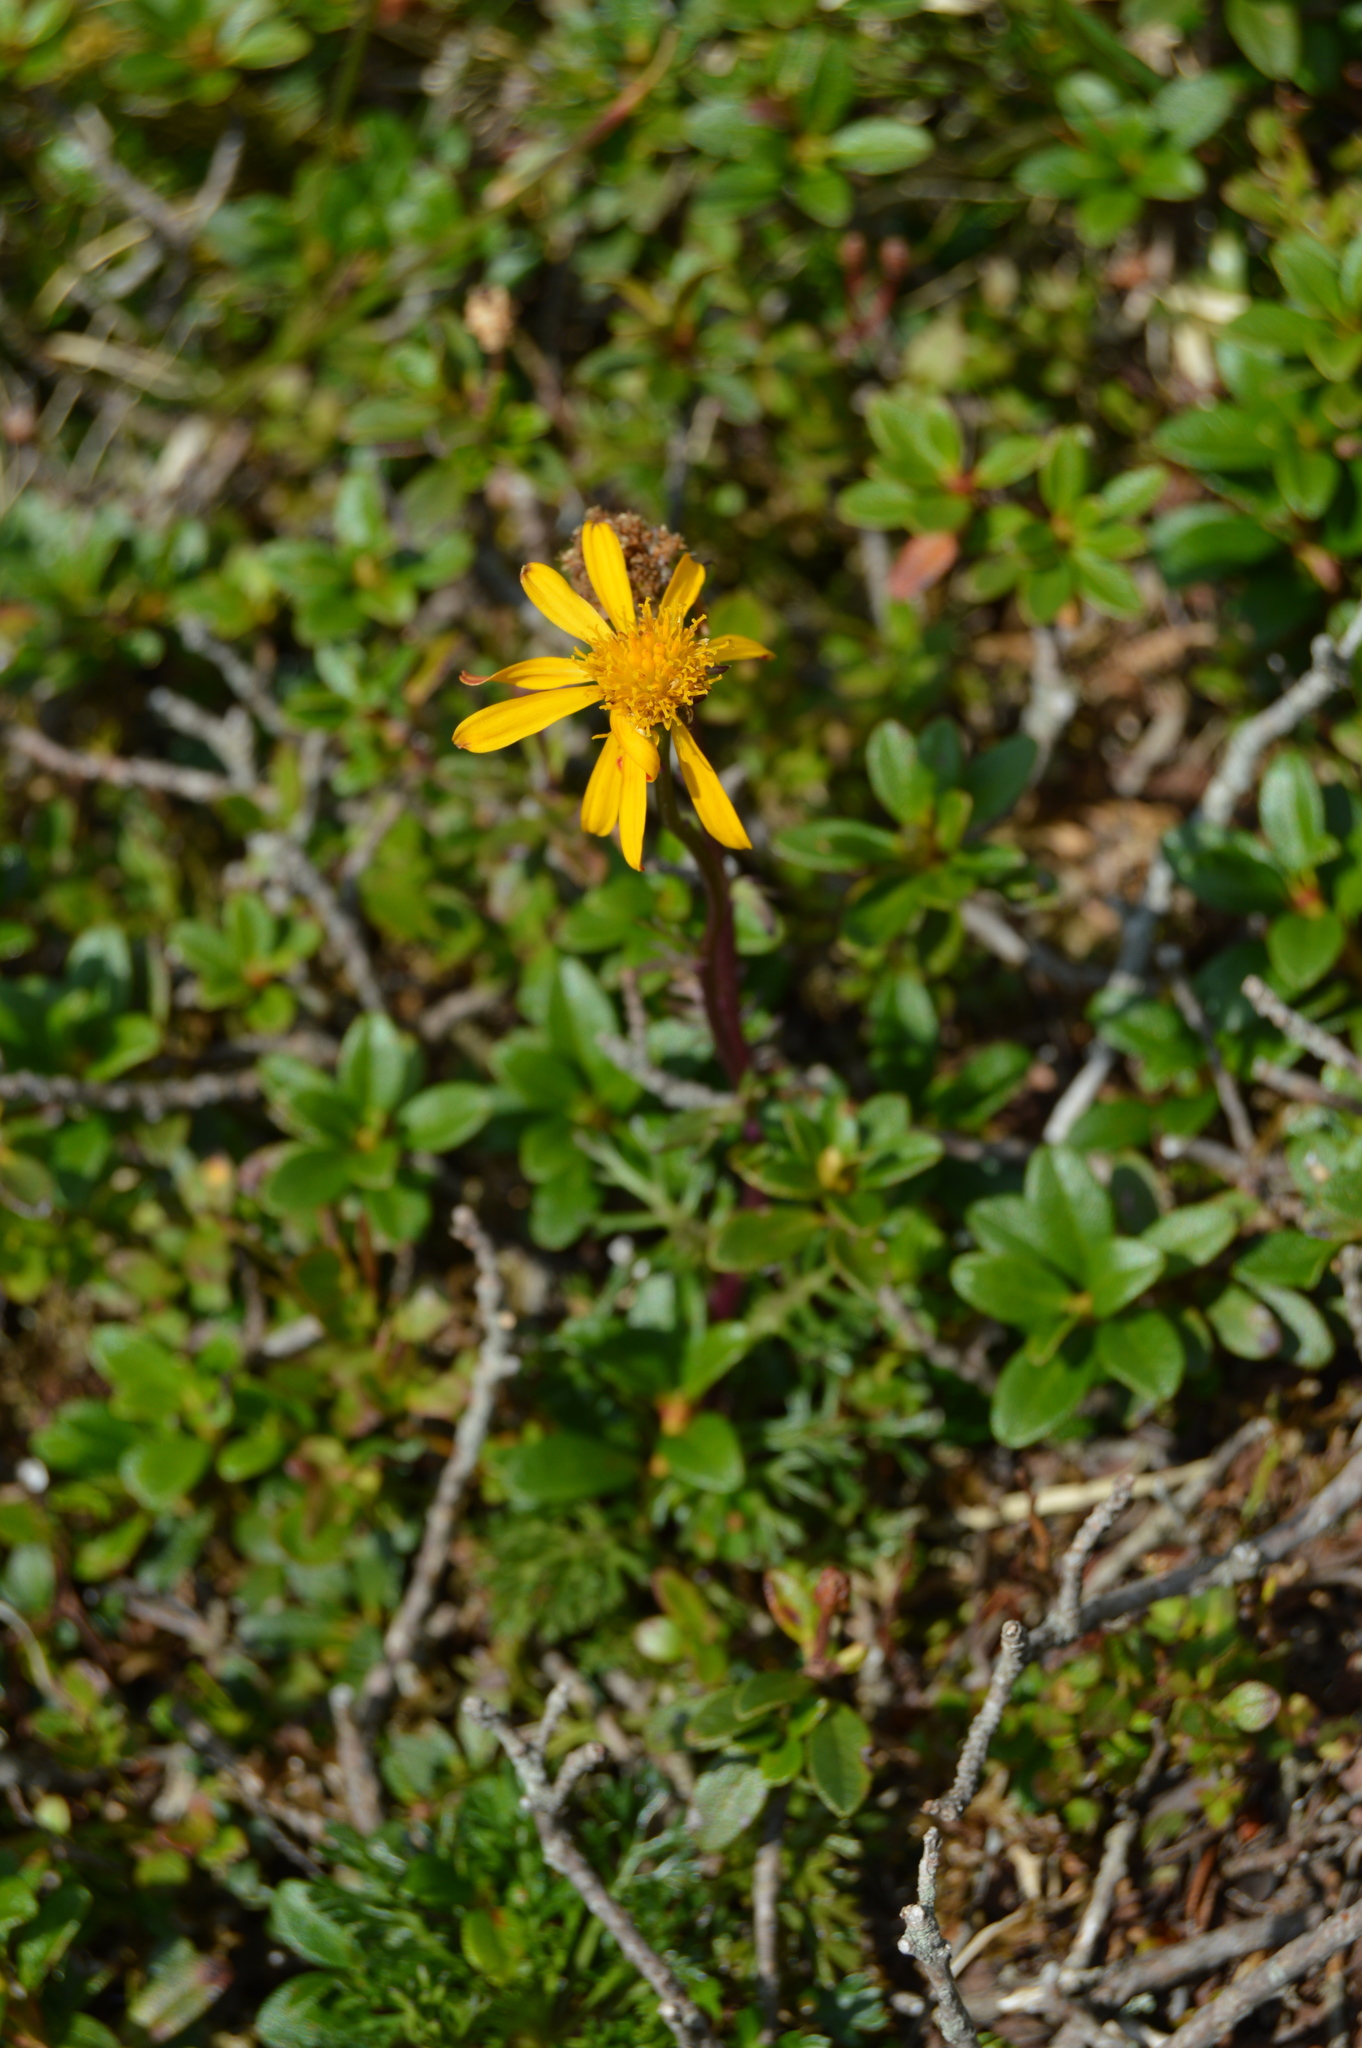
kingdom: Plantae
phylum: Tracheophyta
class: Magnoliopsida
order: Asterales
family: Asteraceae
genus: Arnica
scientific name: Arnica montana
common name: Leopard's bane
